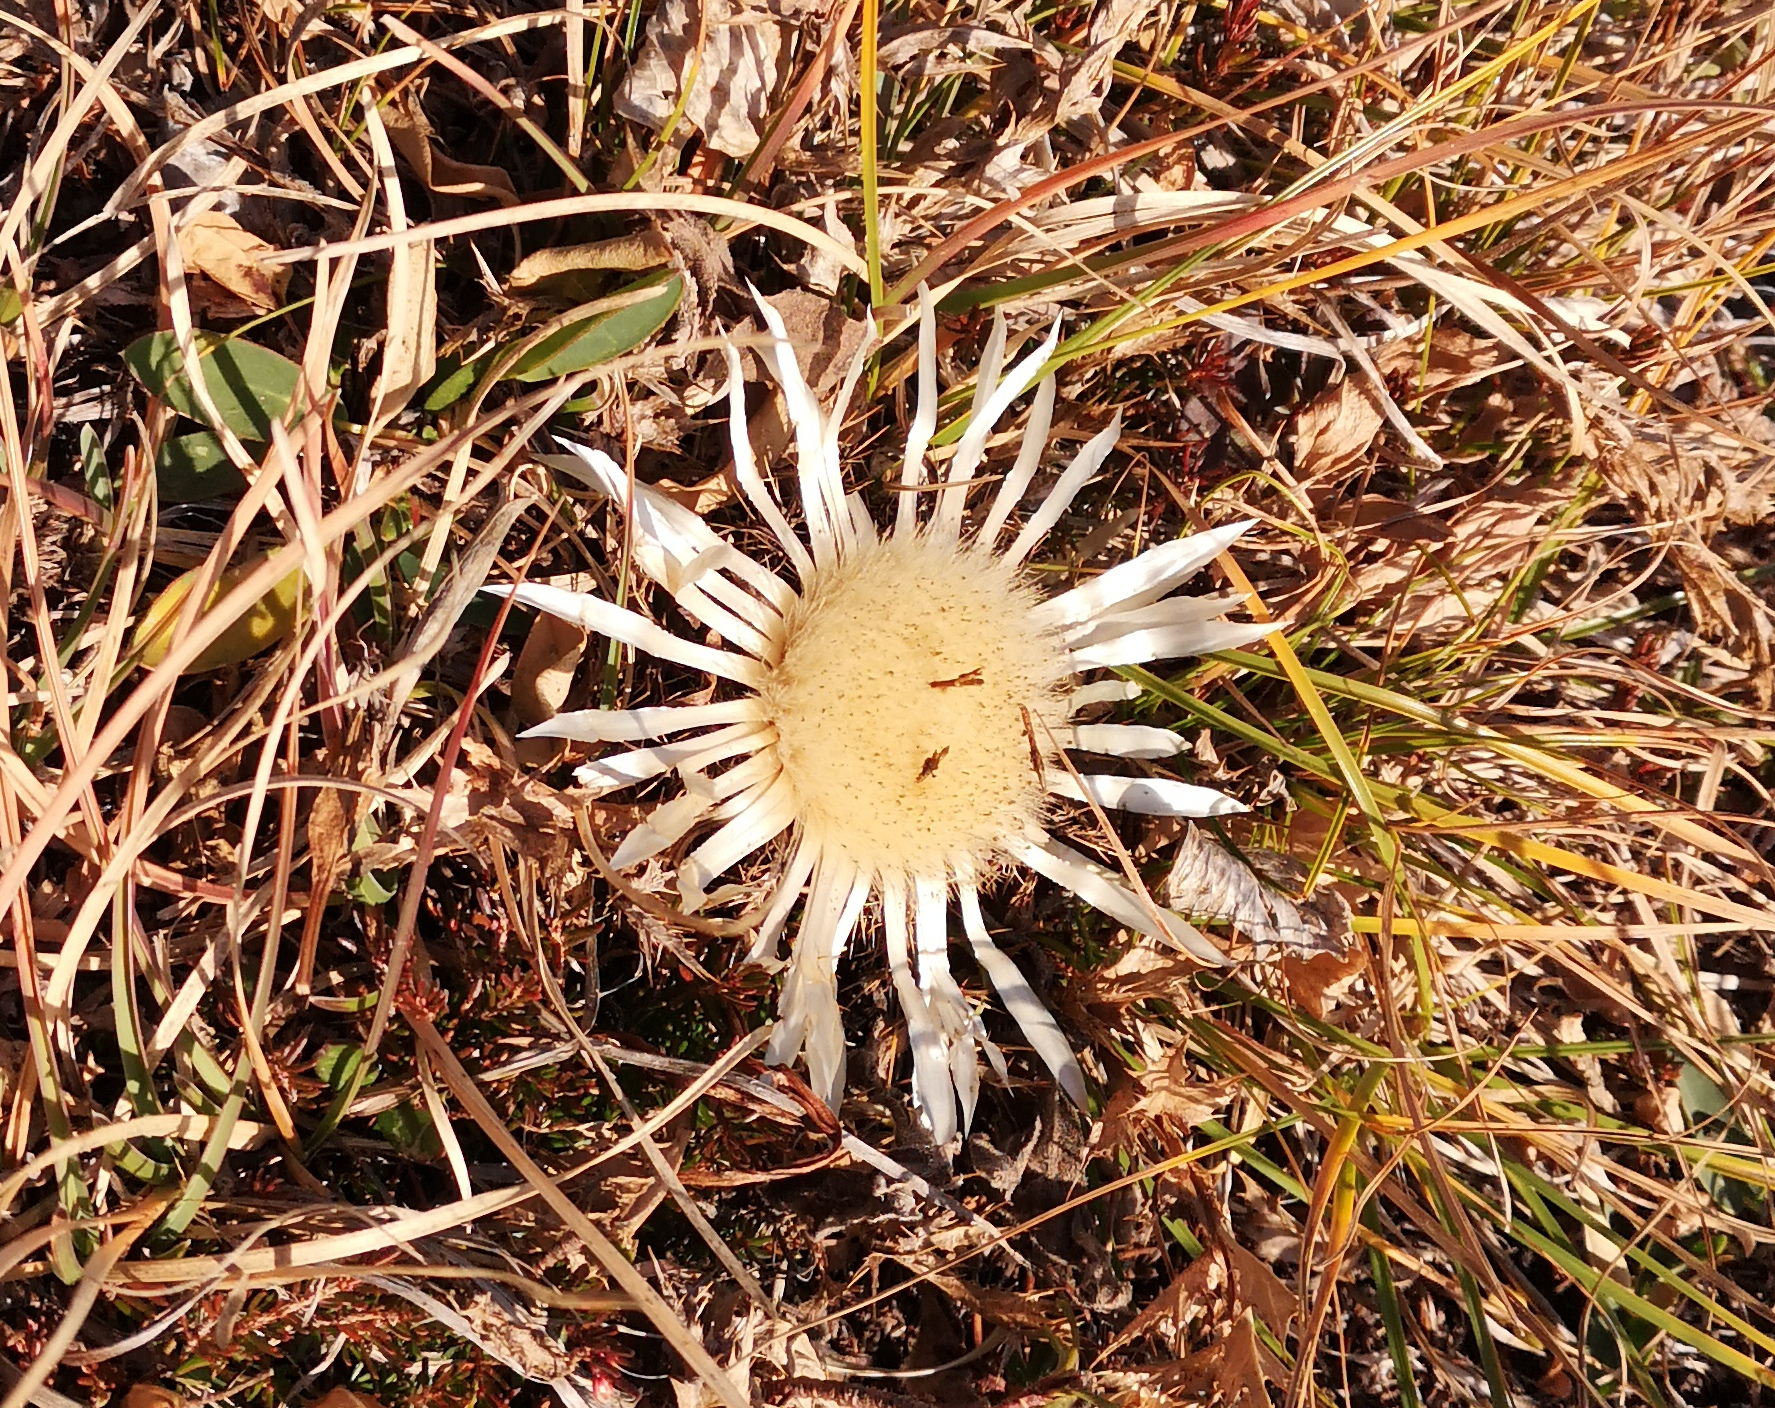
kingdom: Plantae
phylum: Tracheophyta
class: Magnoliopsida
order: Asterales
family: Asteraceae
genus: Carlina
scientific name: Carlina acaulis
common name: Stemless carline thistle
